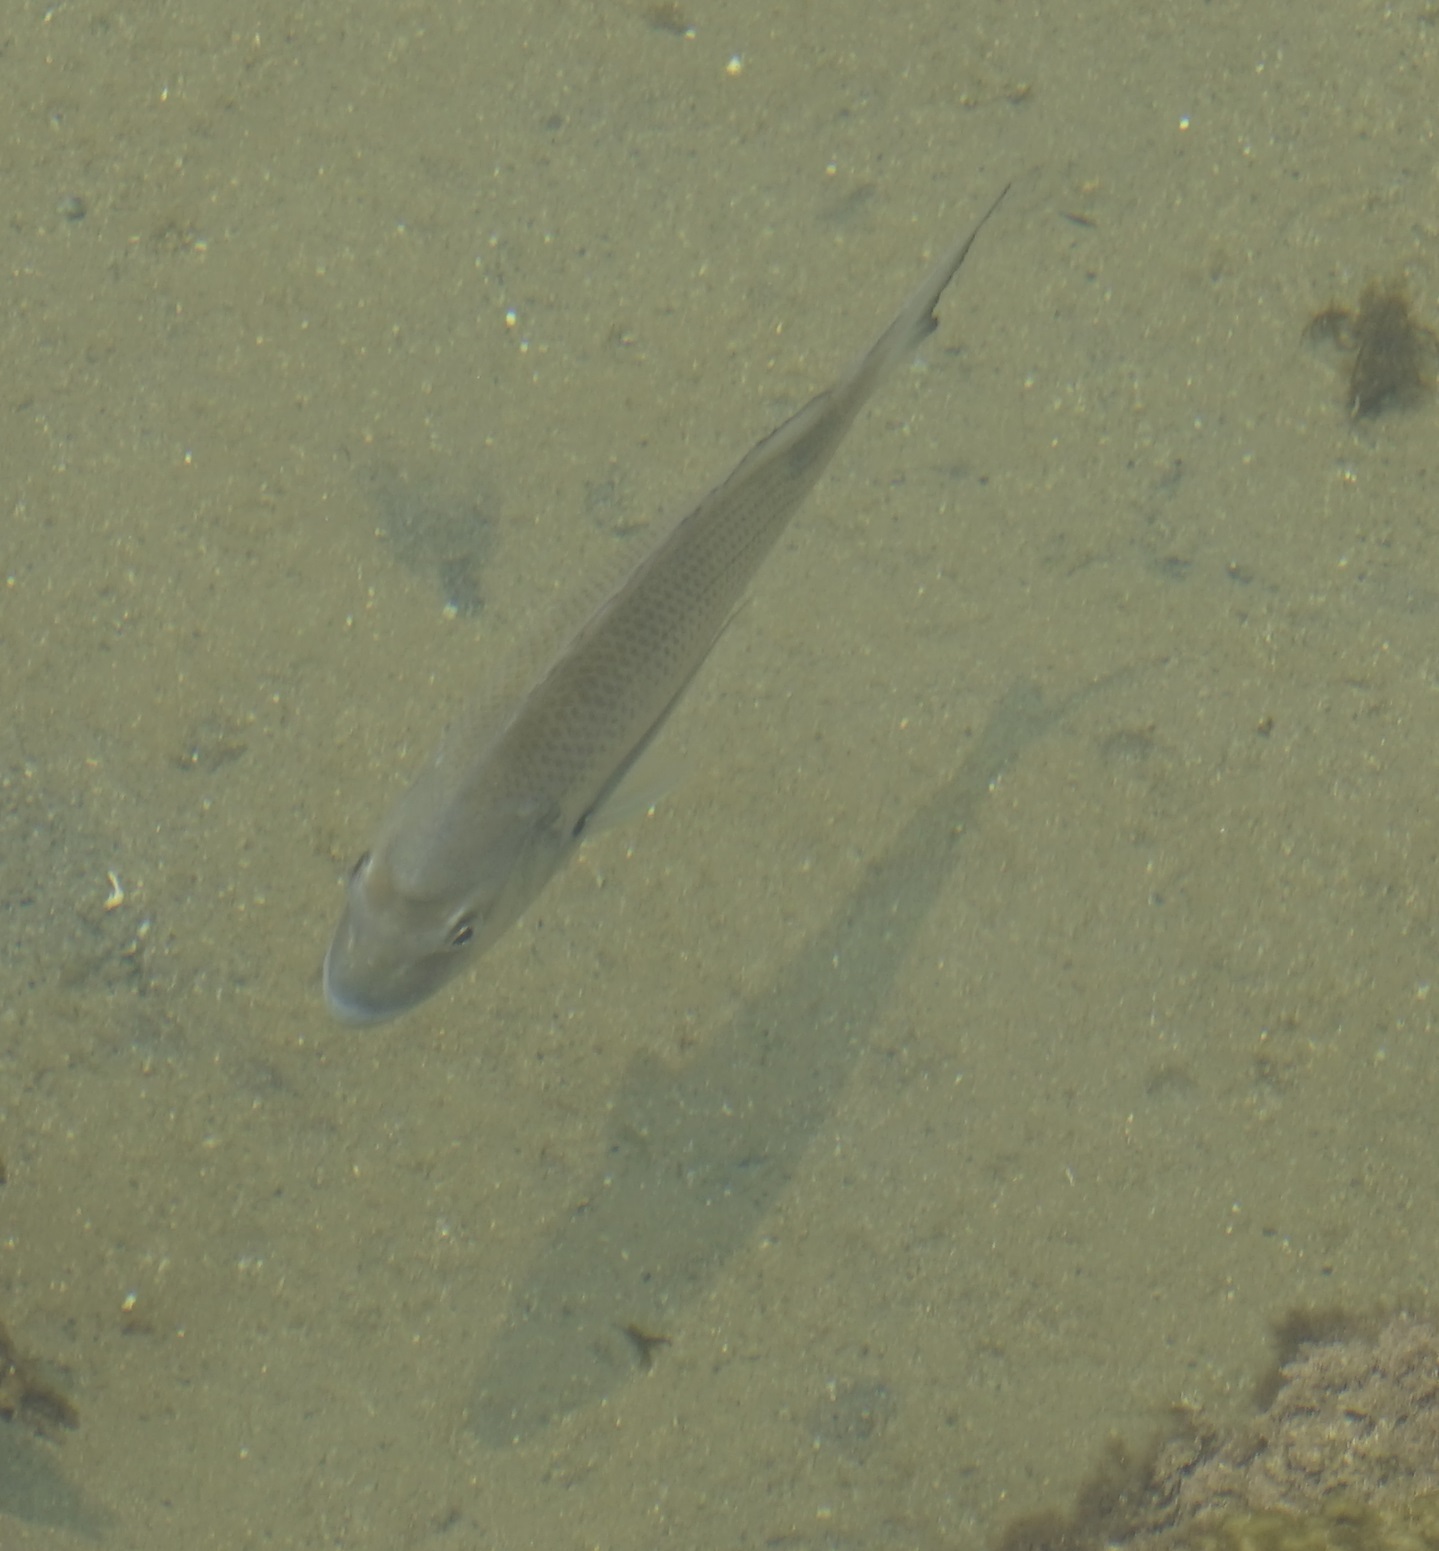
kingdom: Animalia
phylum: Chordata
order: Perciformes
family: Sparidae
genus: Acanthopagrus
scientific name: Acanthopagrus australis
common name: Surf bream
